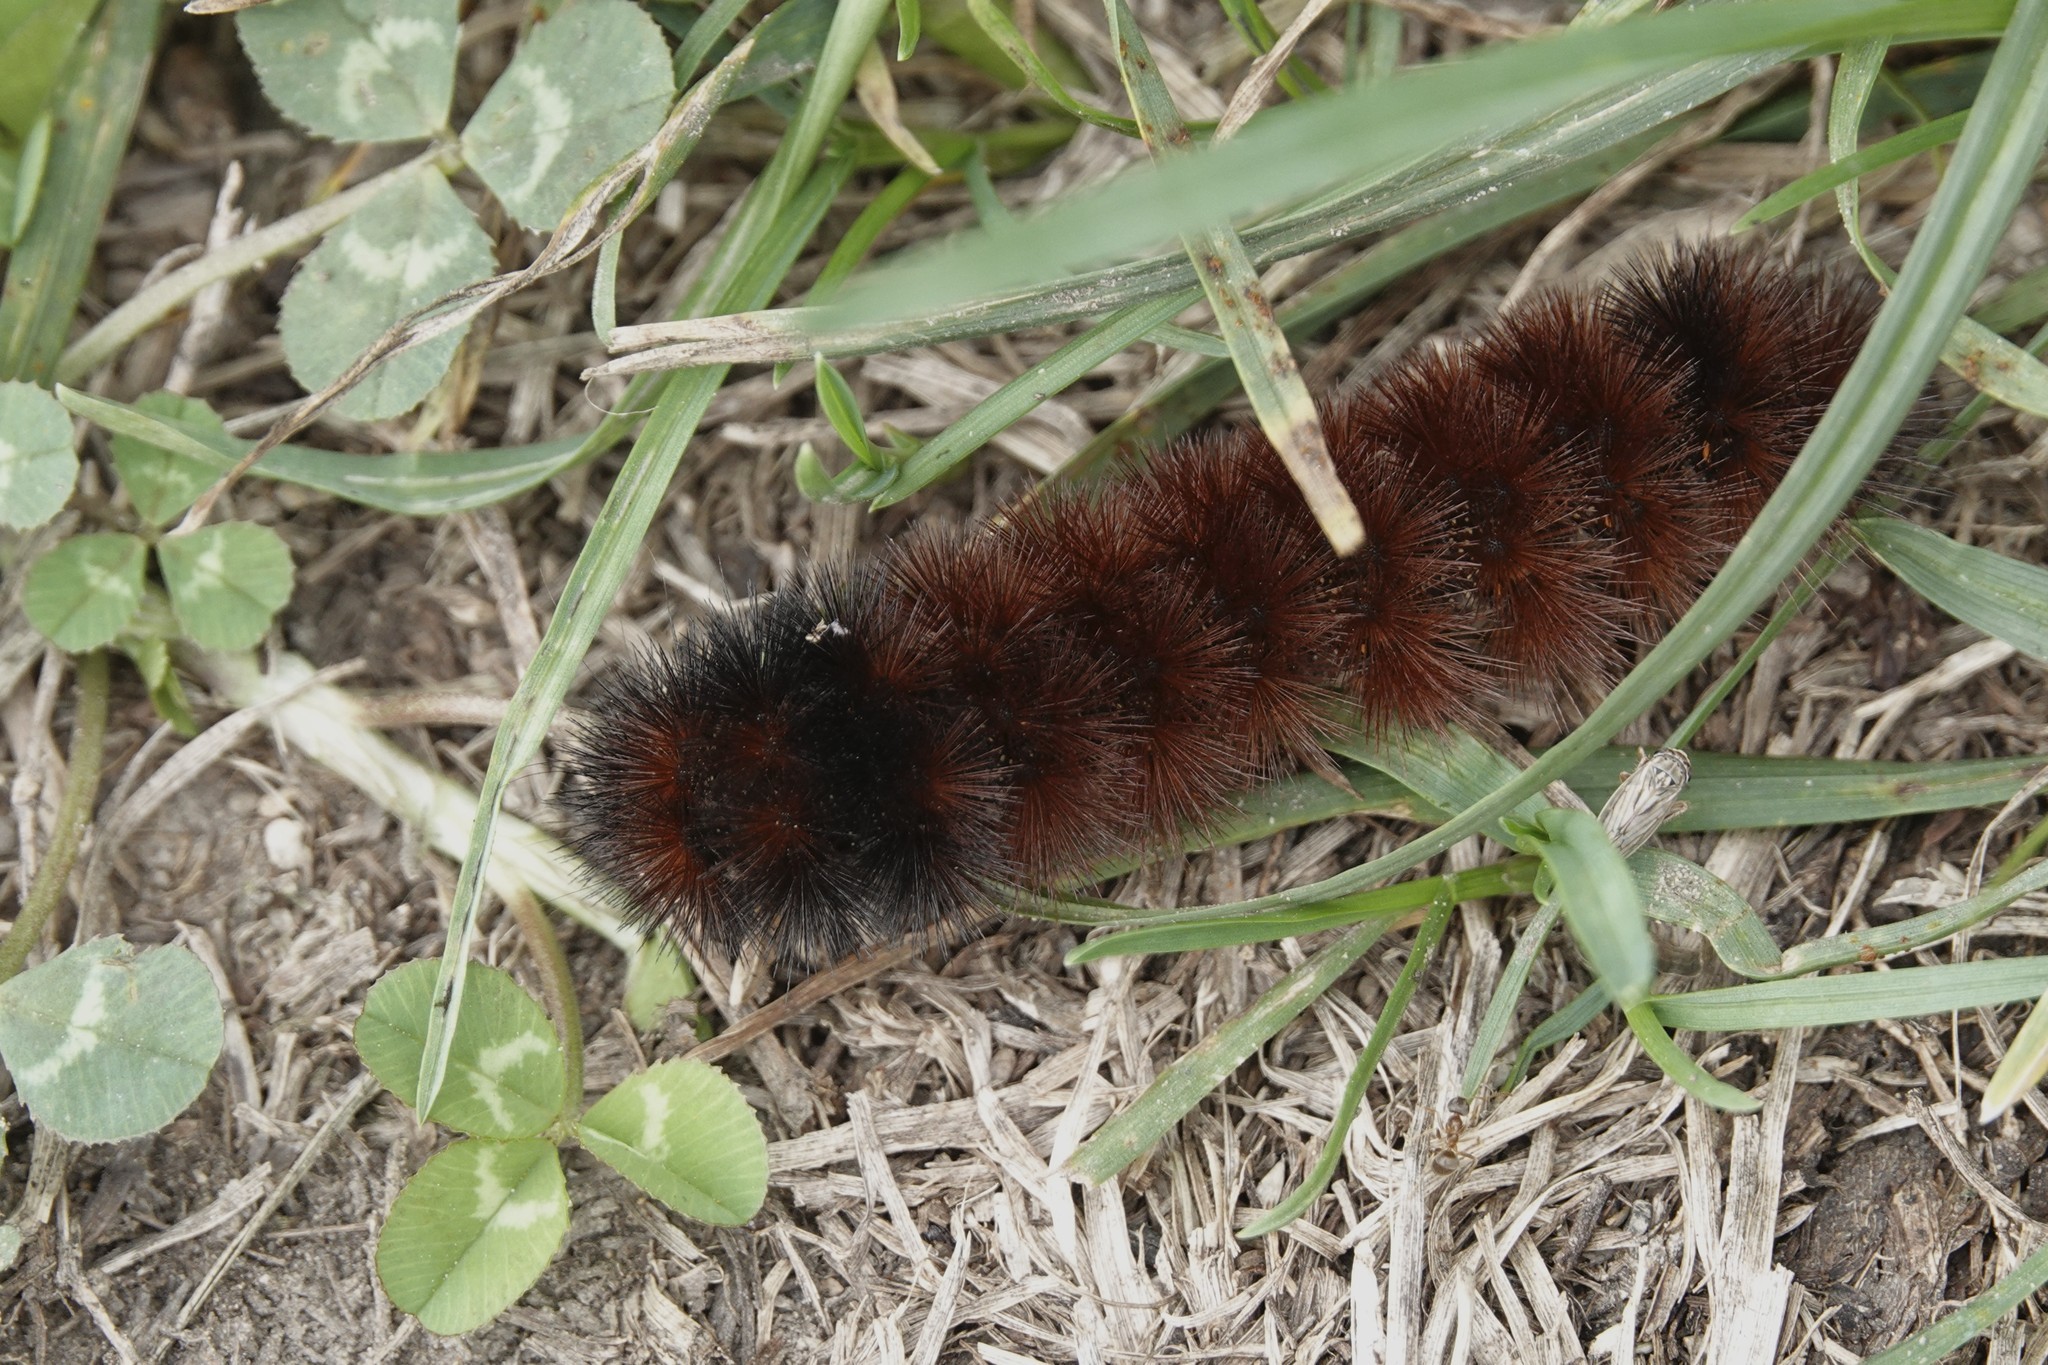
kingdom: Animalia
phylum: Arthropoda
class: Insecta
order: Lepidoptera
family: Erebidae
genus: Pyrrharctia
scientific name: Pyrrharctia isabella
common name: Isabella tiger moth
